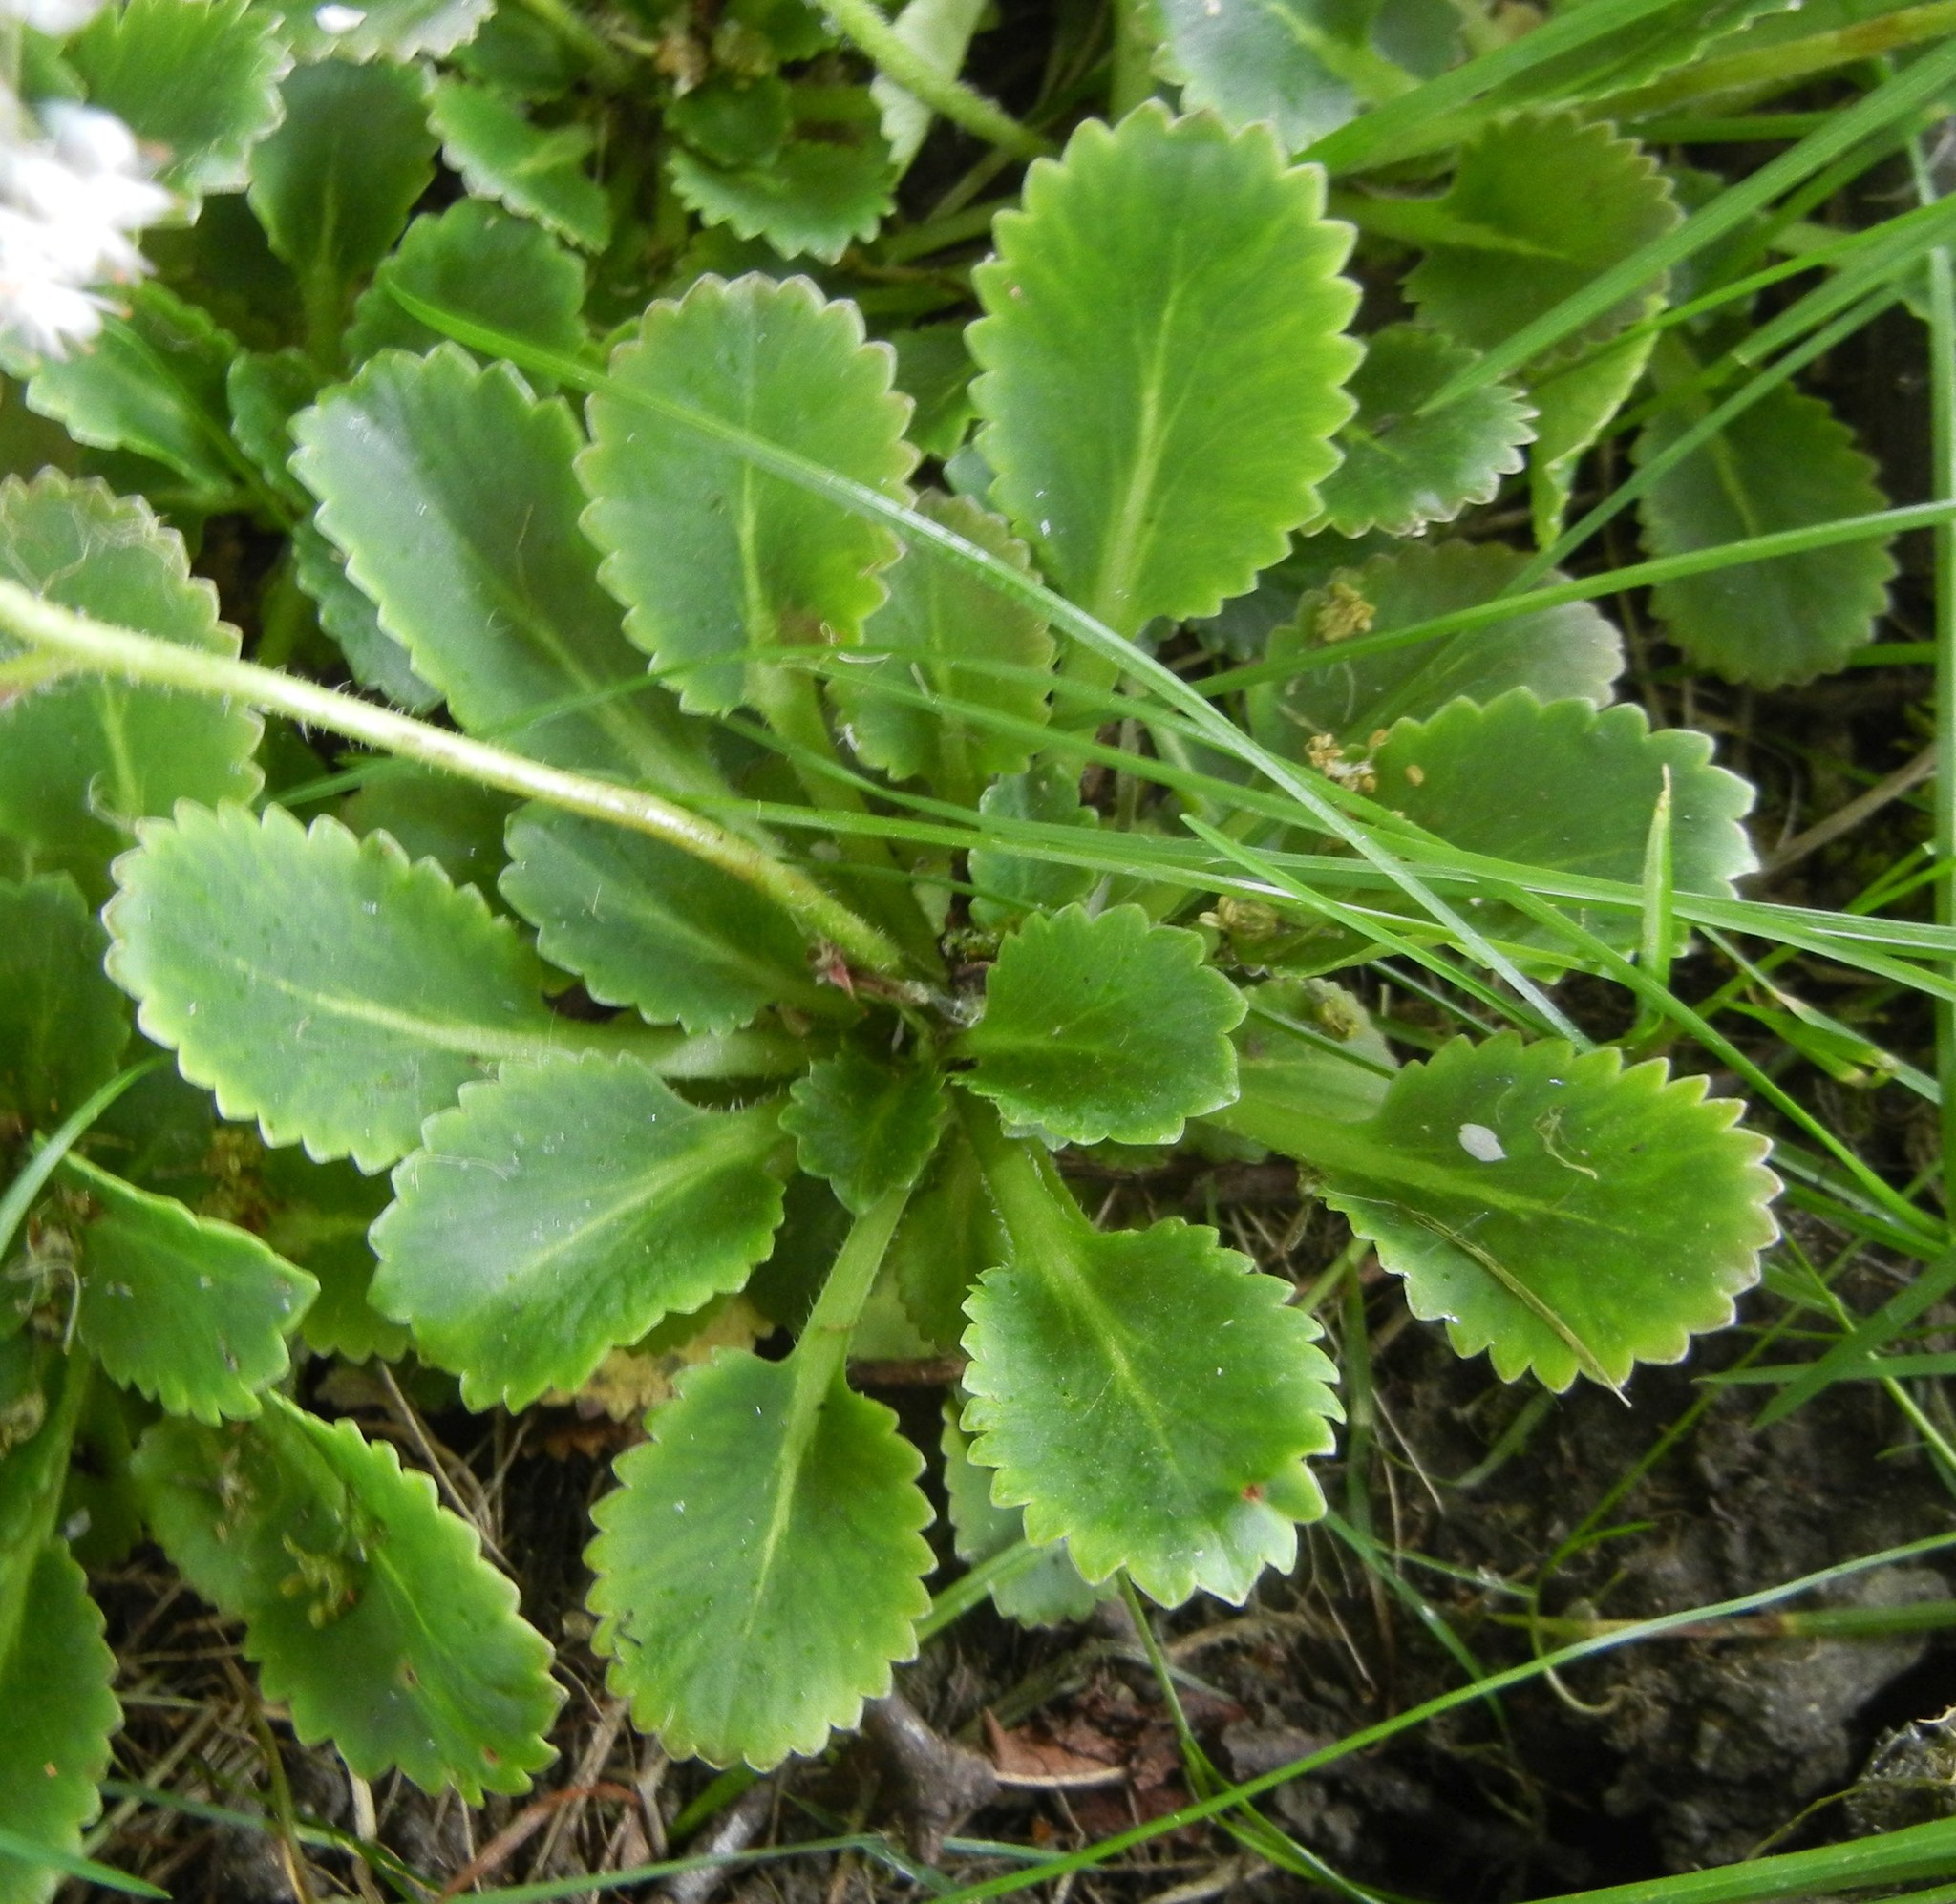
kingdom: Plantae
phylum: Tracheophyta
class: Magnoliopsida
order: Saxifragales
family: Saxifragaceae
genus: Saxifraga
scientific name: Saxifraga urbium
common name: Londonpride
